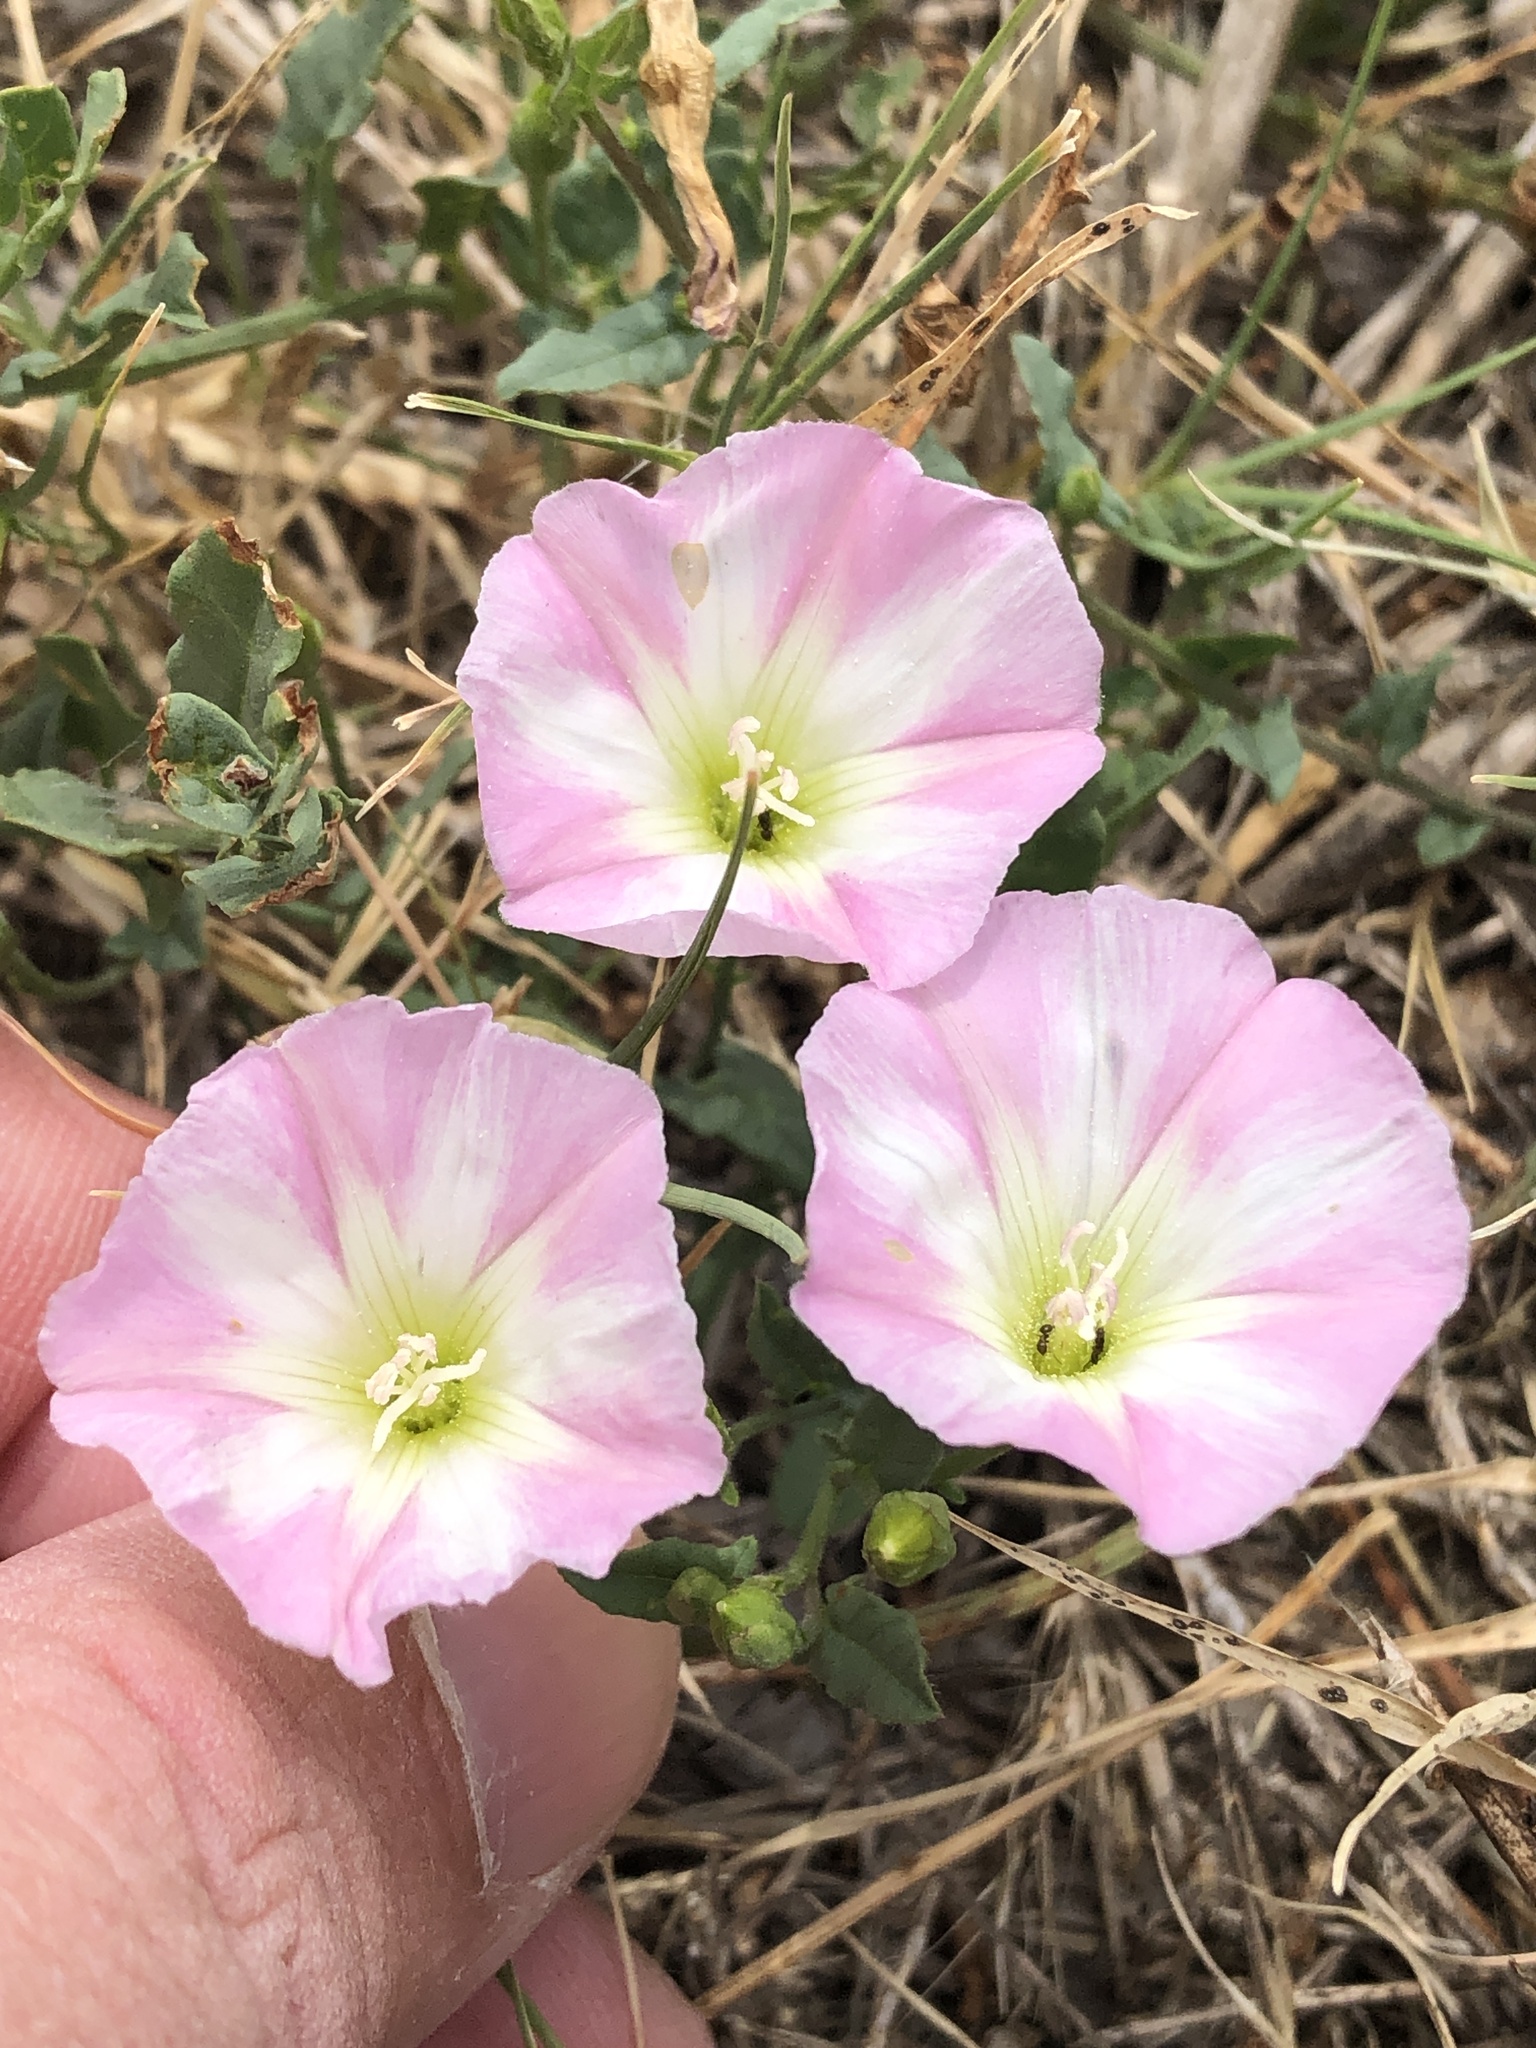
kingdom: Plantae
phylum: Tracheophyta
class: Magnoliopsida
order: Solanales
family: Convolvulaceae
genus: Convolvulus
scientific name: Convolvulus arvensis
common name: Field bindweed
